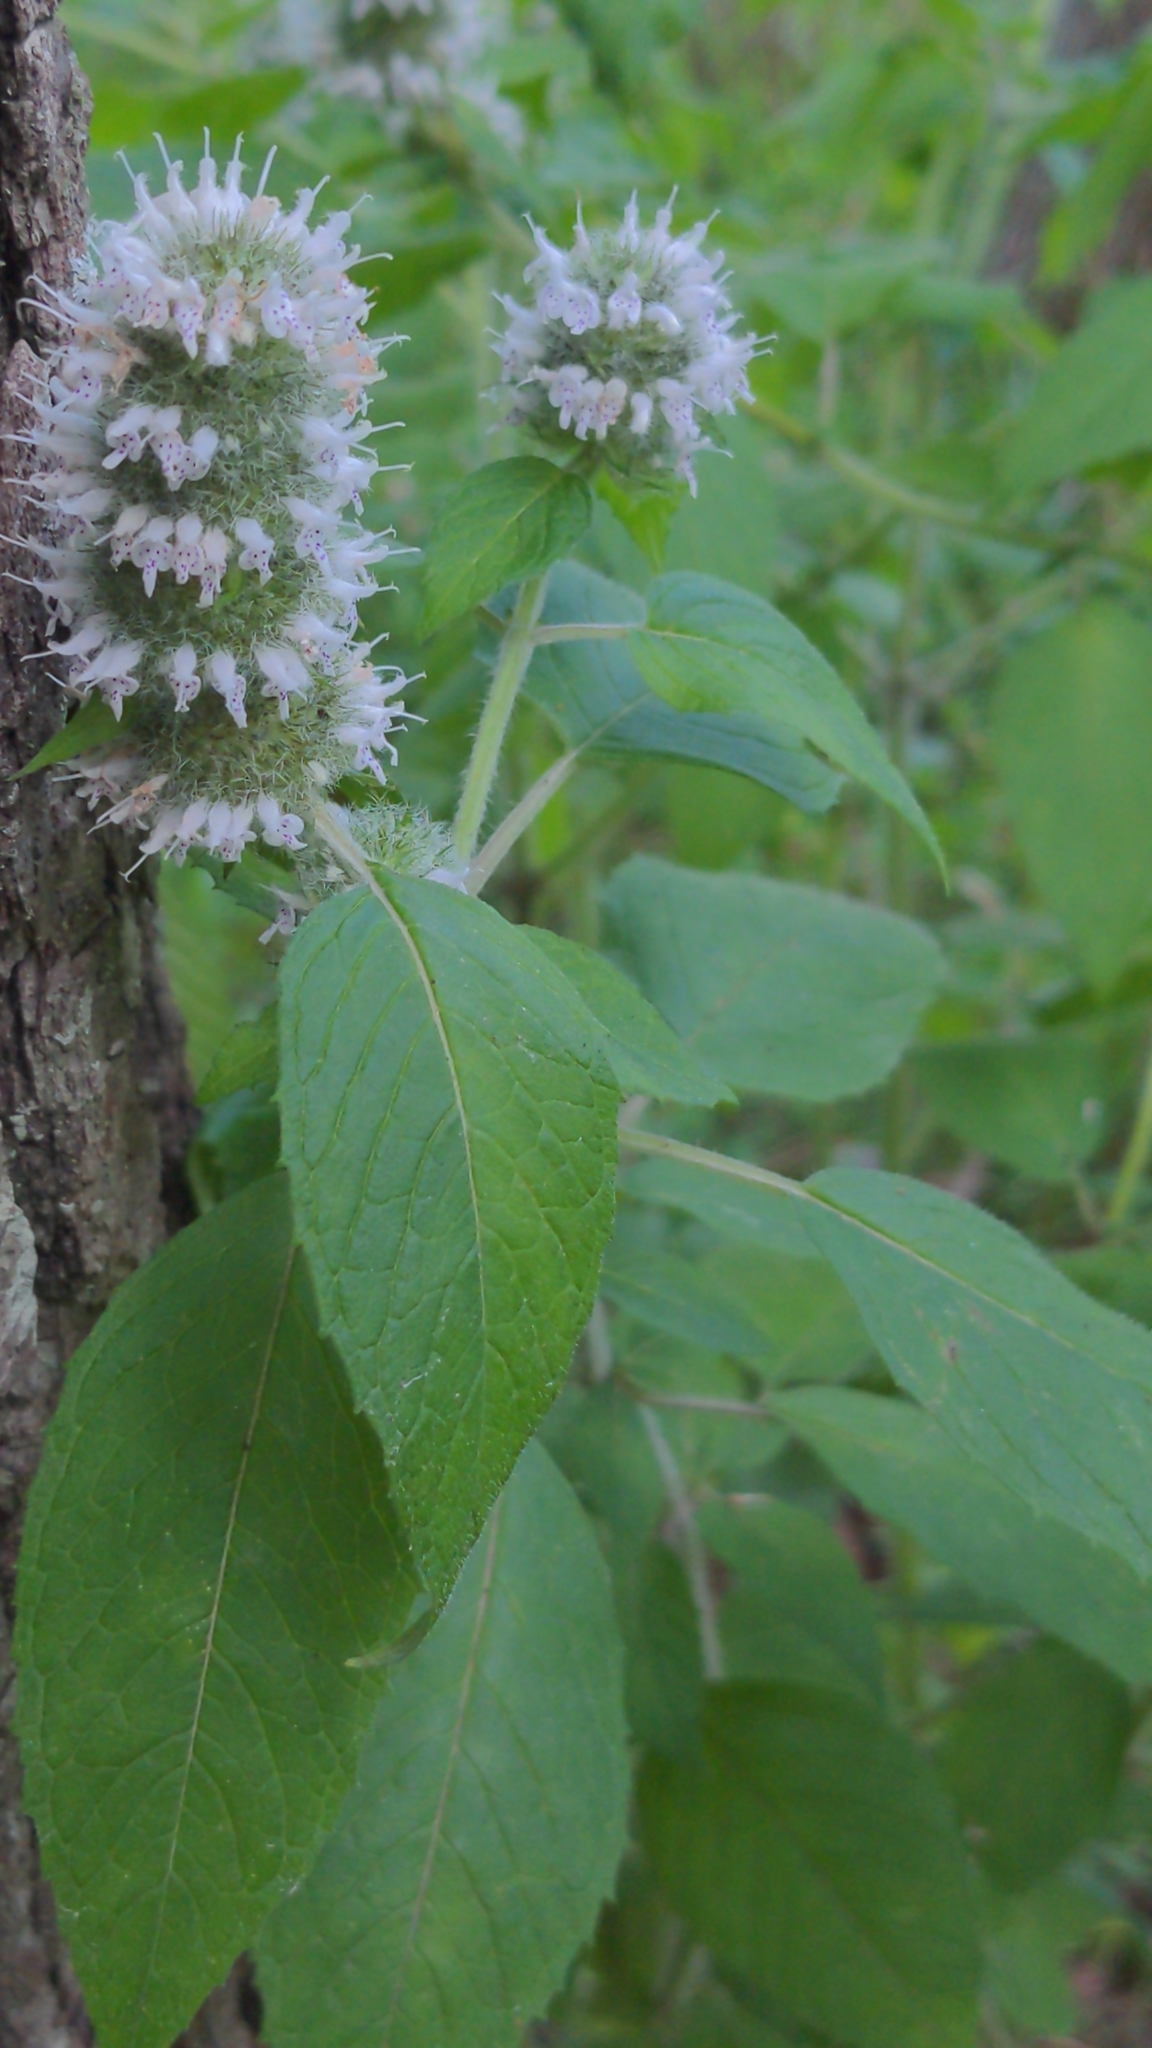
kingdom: Plantae
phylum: Tracheophyta
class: Magnoliopsida
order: Lamiales
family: Lamiaceae
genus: Blephilia
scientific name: Blephilia ciliata
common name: Downy blephilia
